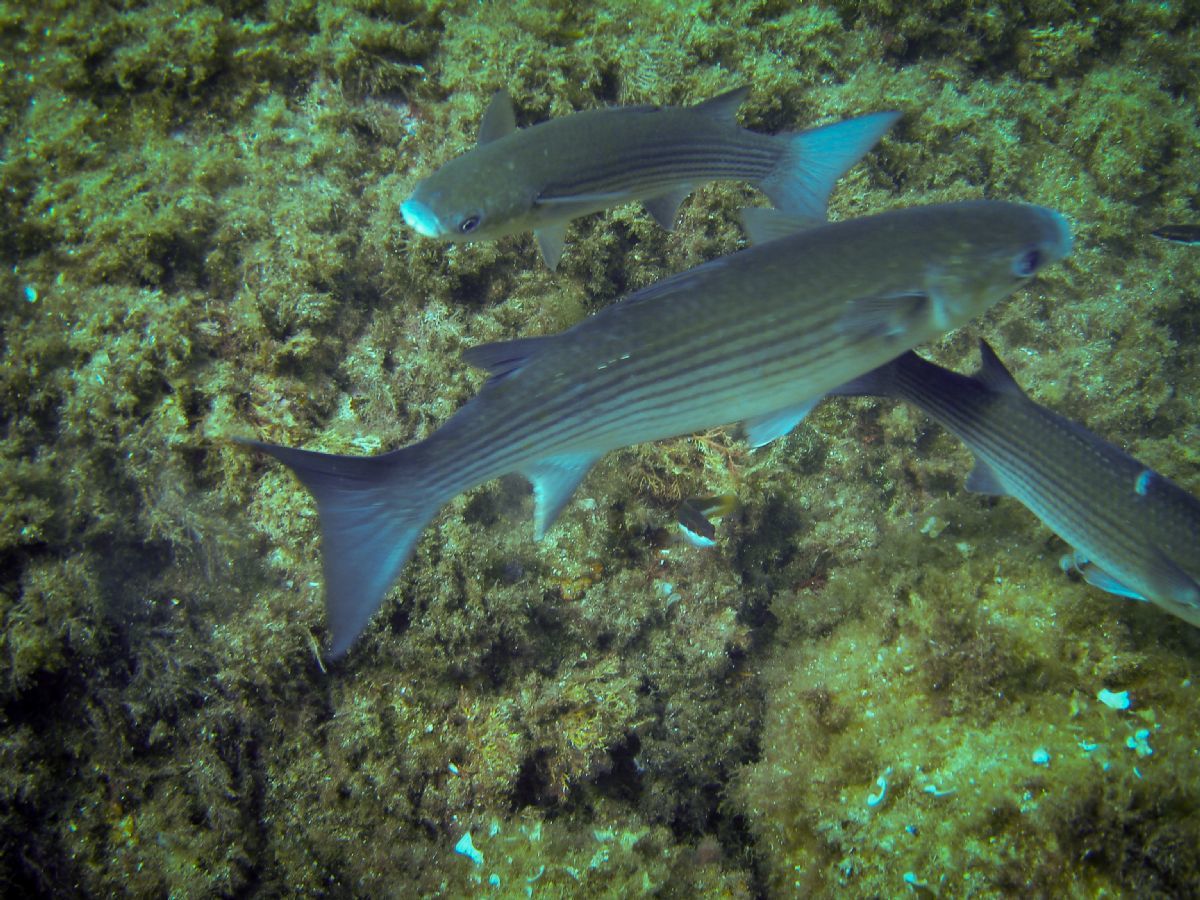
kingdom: Animalia
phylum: Chordata
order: Mugiliformes
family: Mugilidae
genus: Chelon
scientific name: Chelon labrosus
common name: Thick-lipped mullet
